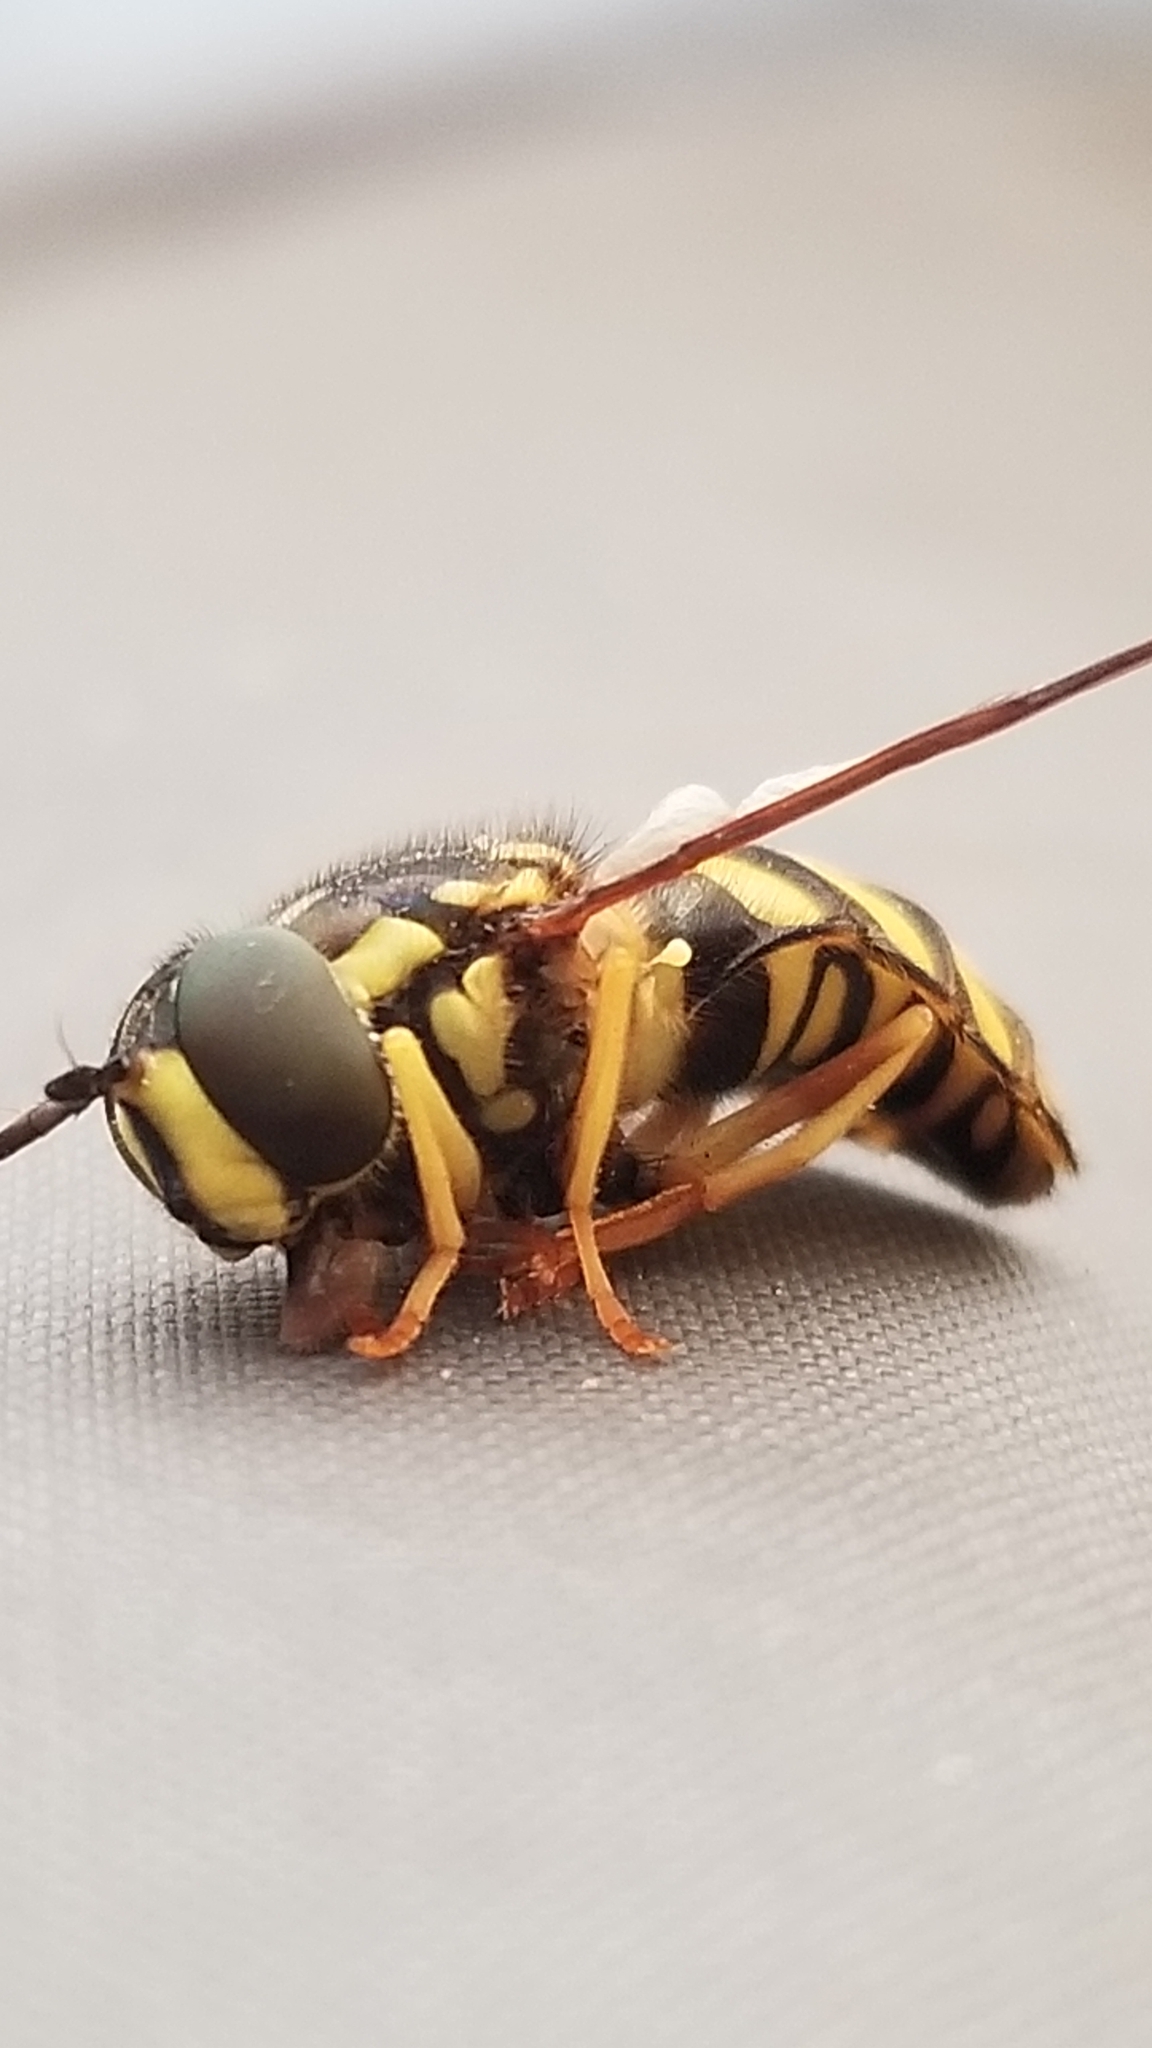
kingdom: Animalia
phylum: Arthropoda
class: Insecta
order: Diptera
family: Syrphidae
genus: Chrysotoxum
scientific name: Chrysotoxum
